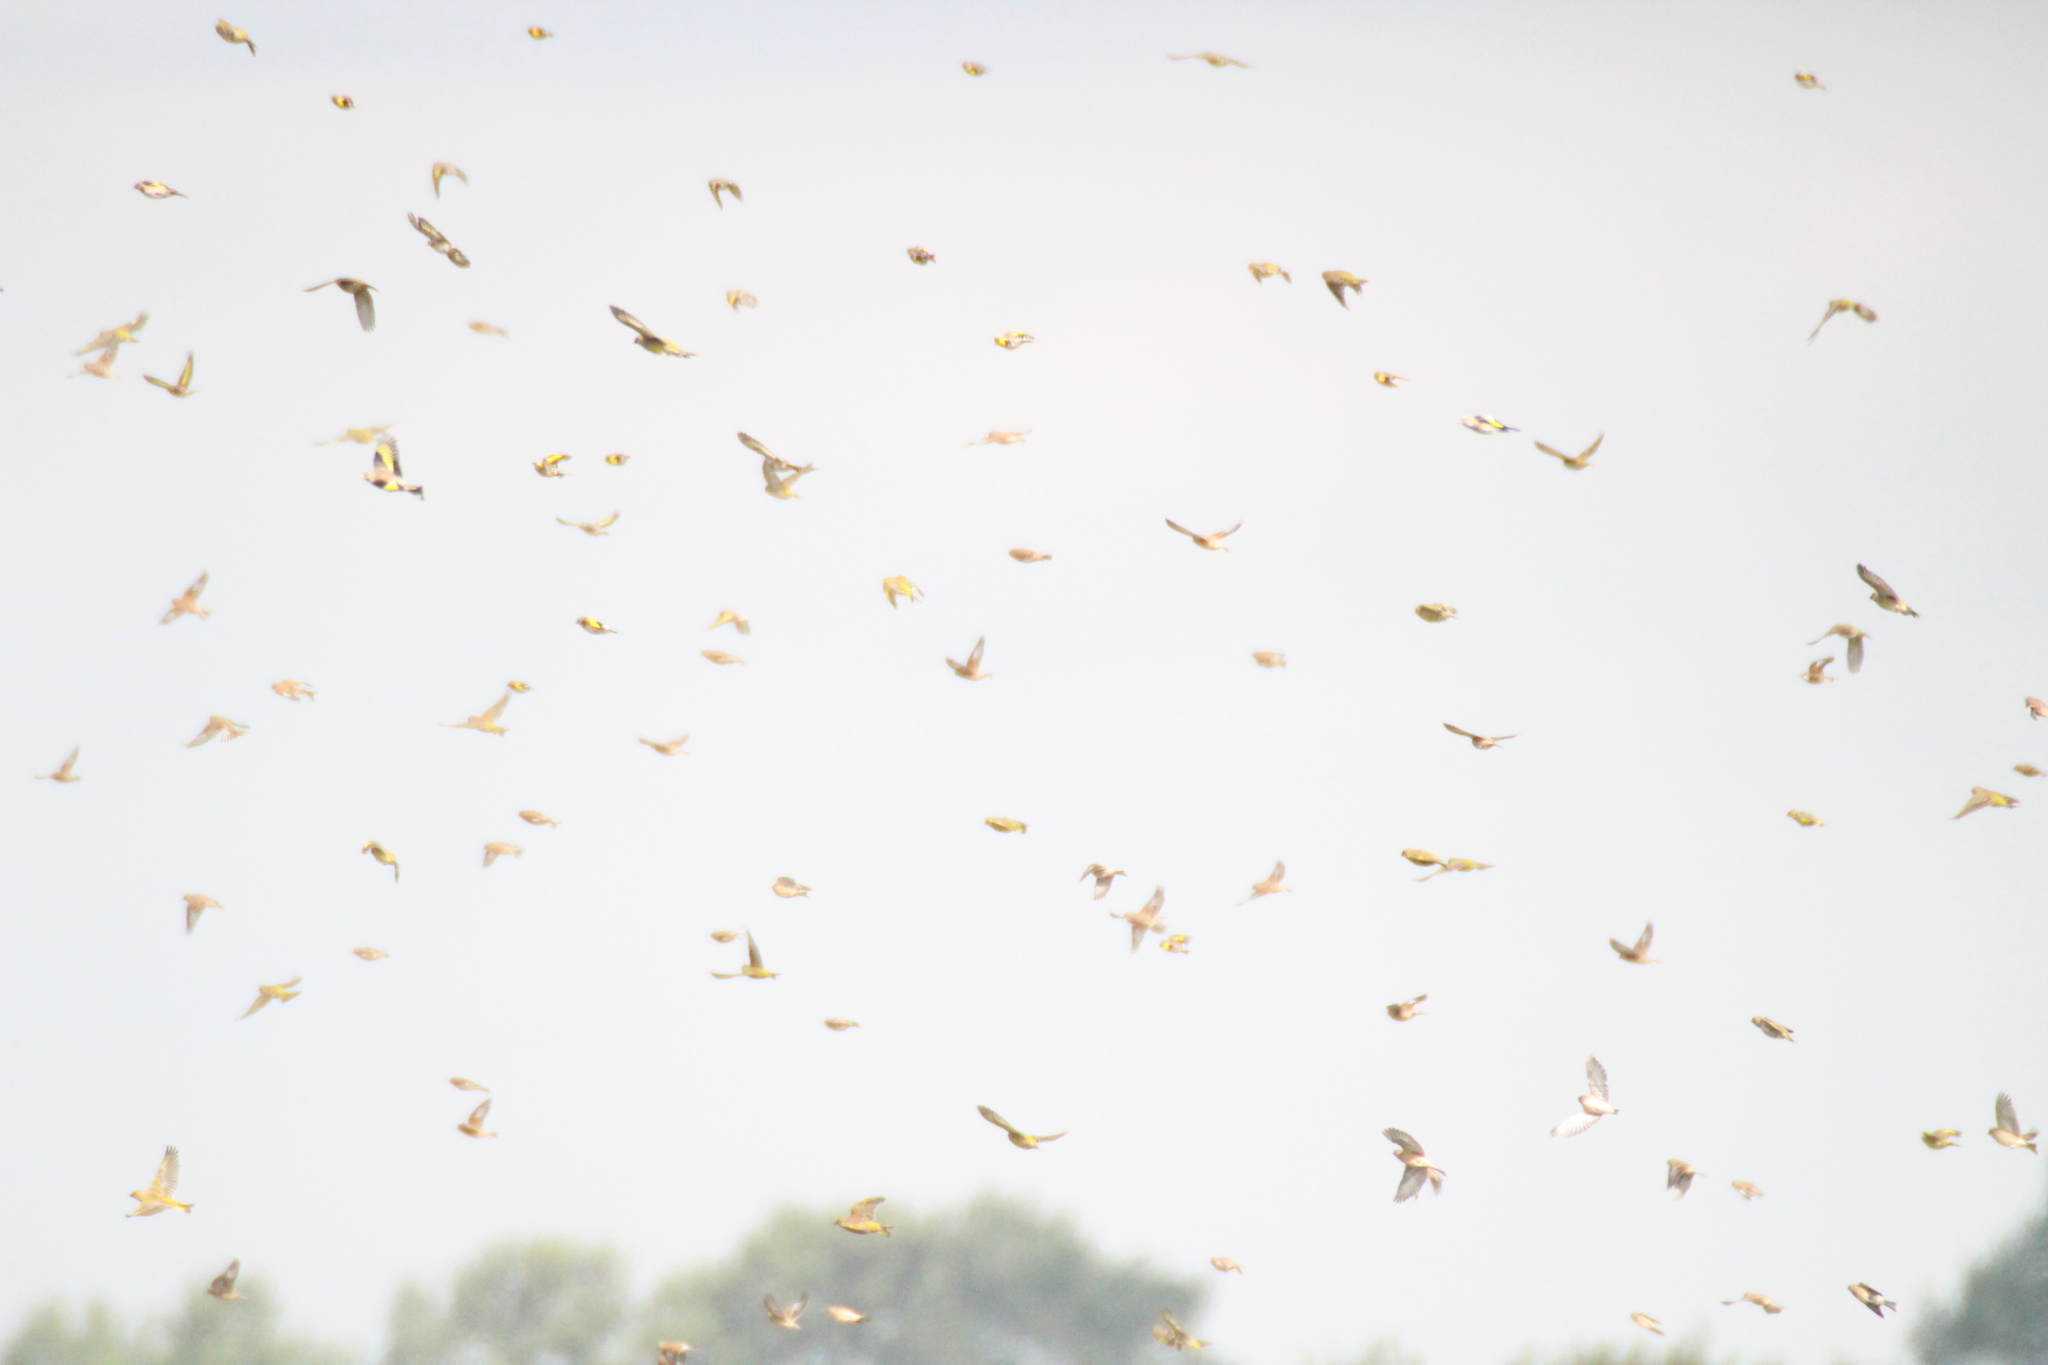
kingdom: Animalia
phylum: Chordata
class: Aves
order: Passeriformes
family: Fringillidae
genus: Carduelis
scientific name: Carduelis carduelis
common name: European goldfinch
